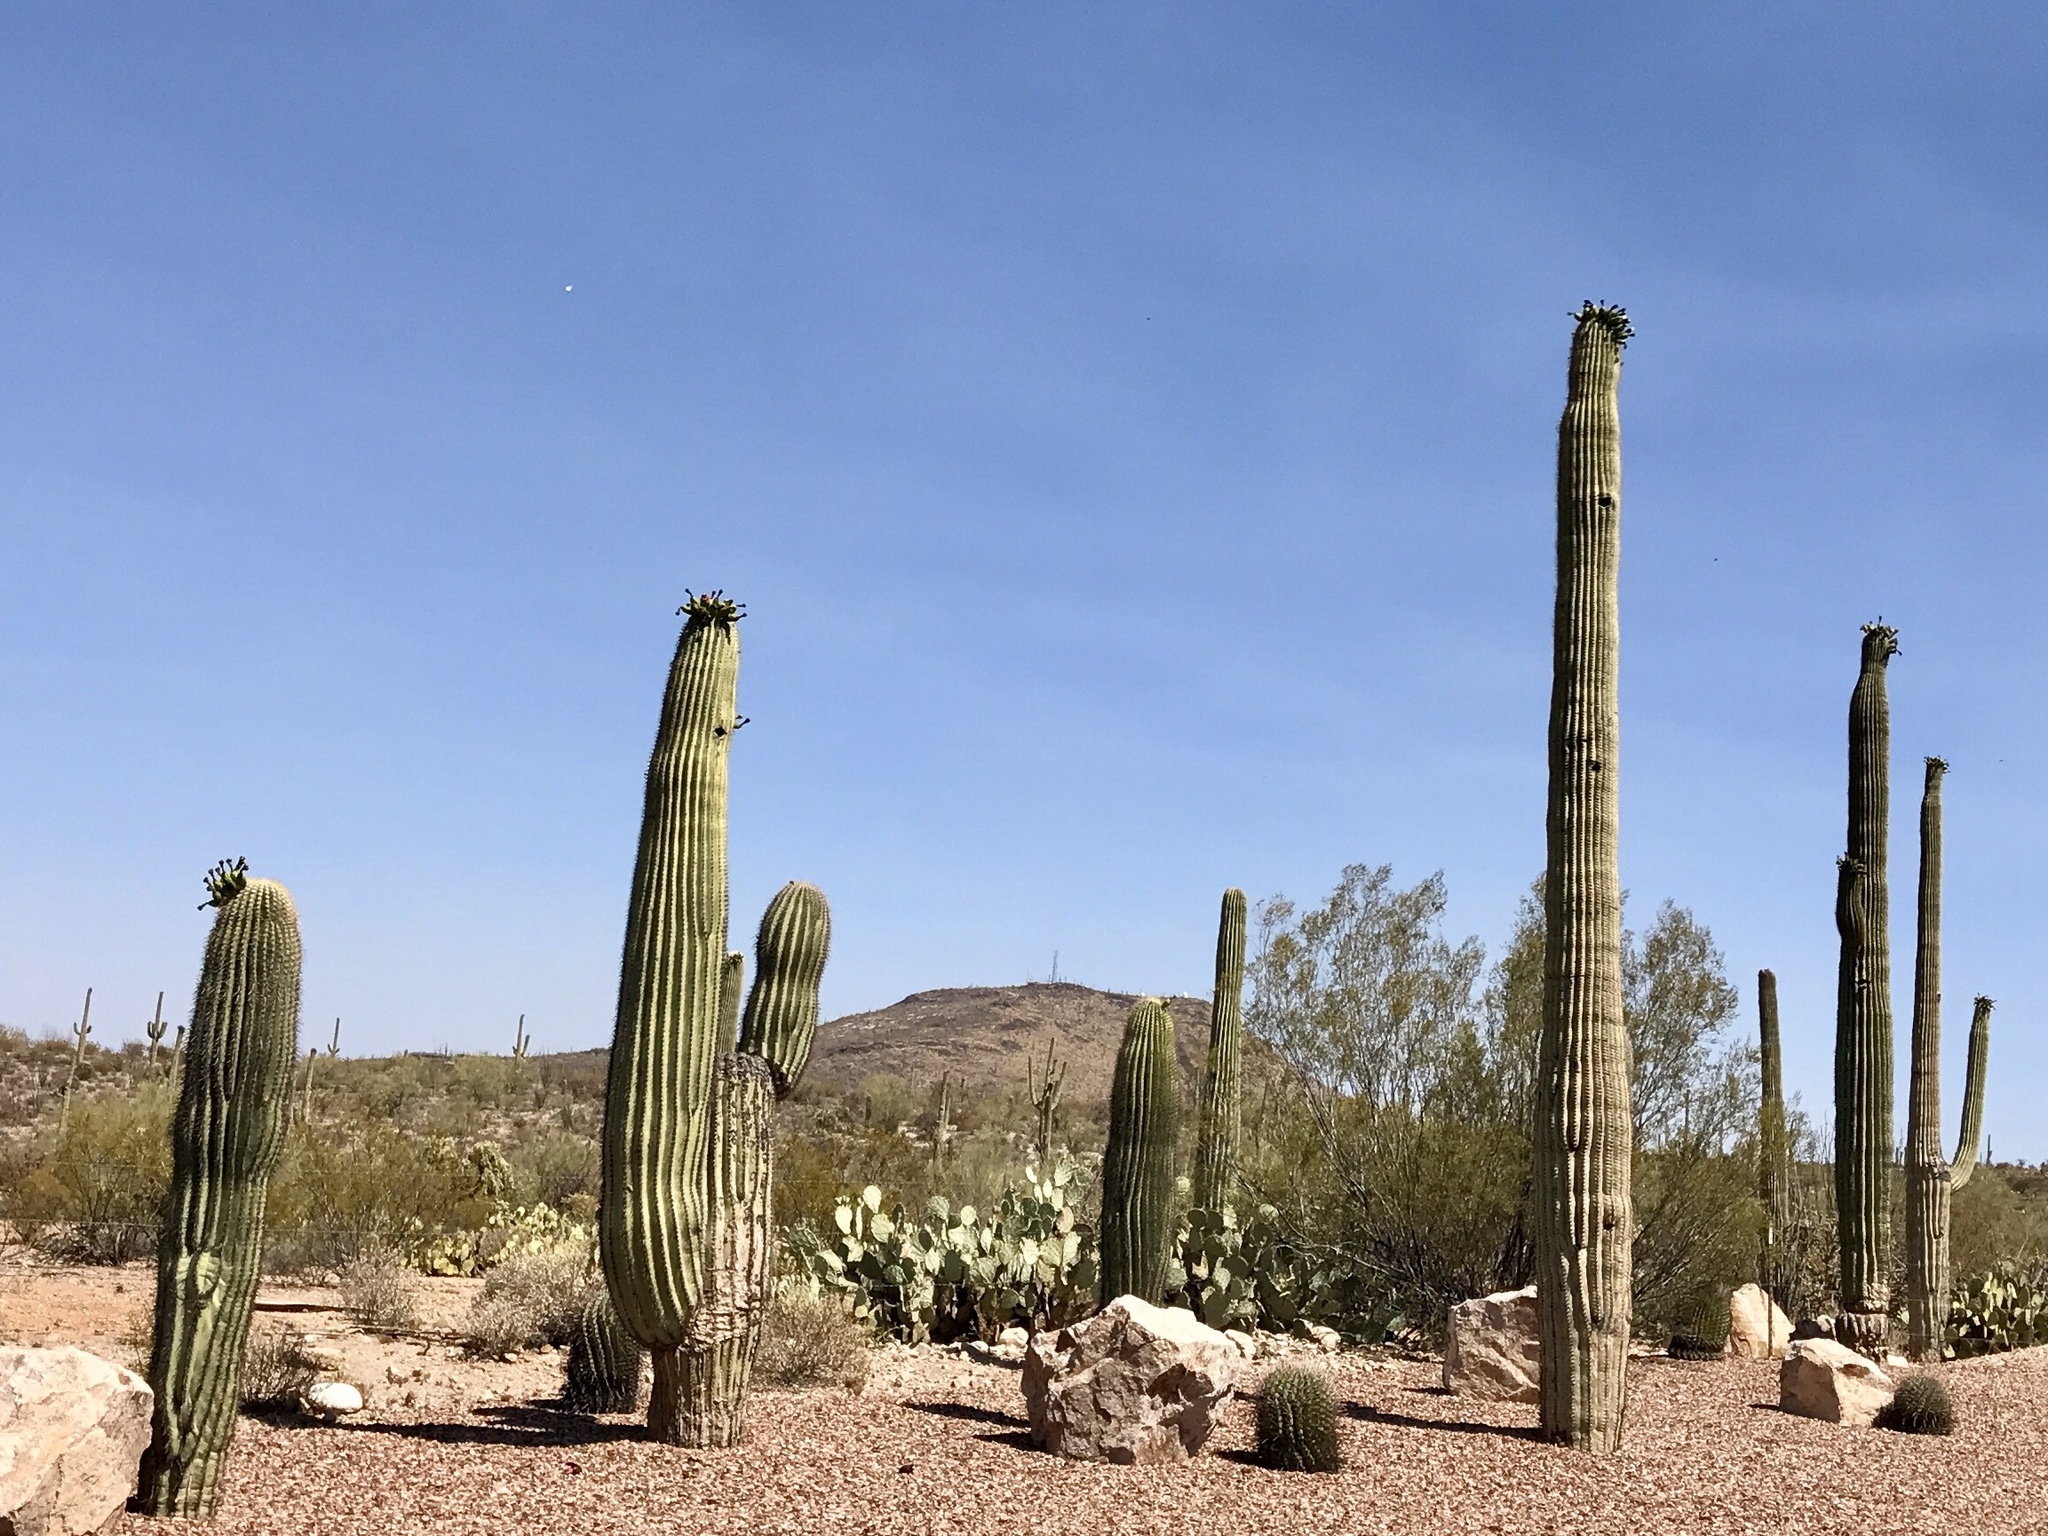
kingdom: Plantae
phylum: Tracheophyta
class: Magnoliopsida
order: Caryophyllales
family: Cactaceae
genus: Carnegiea
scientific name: Carnegiea gigantea
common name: Saguaro
